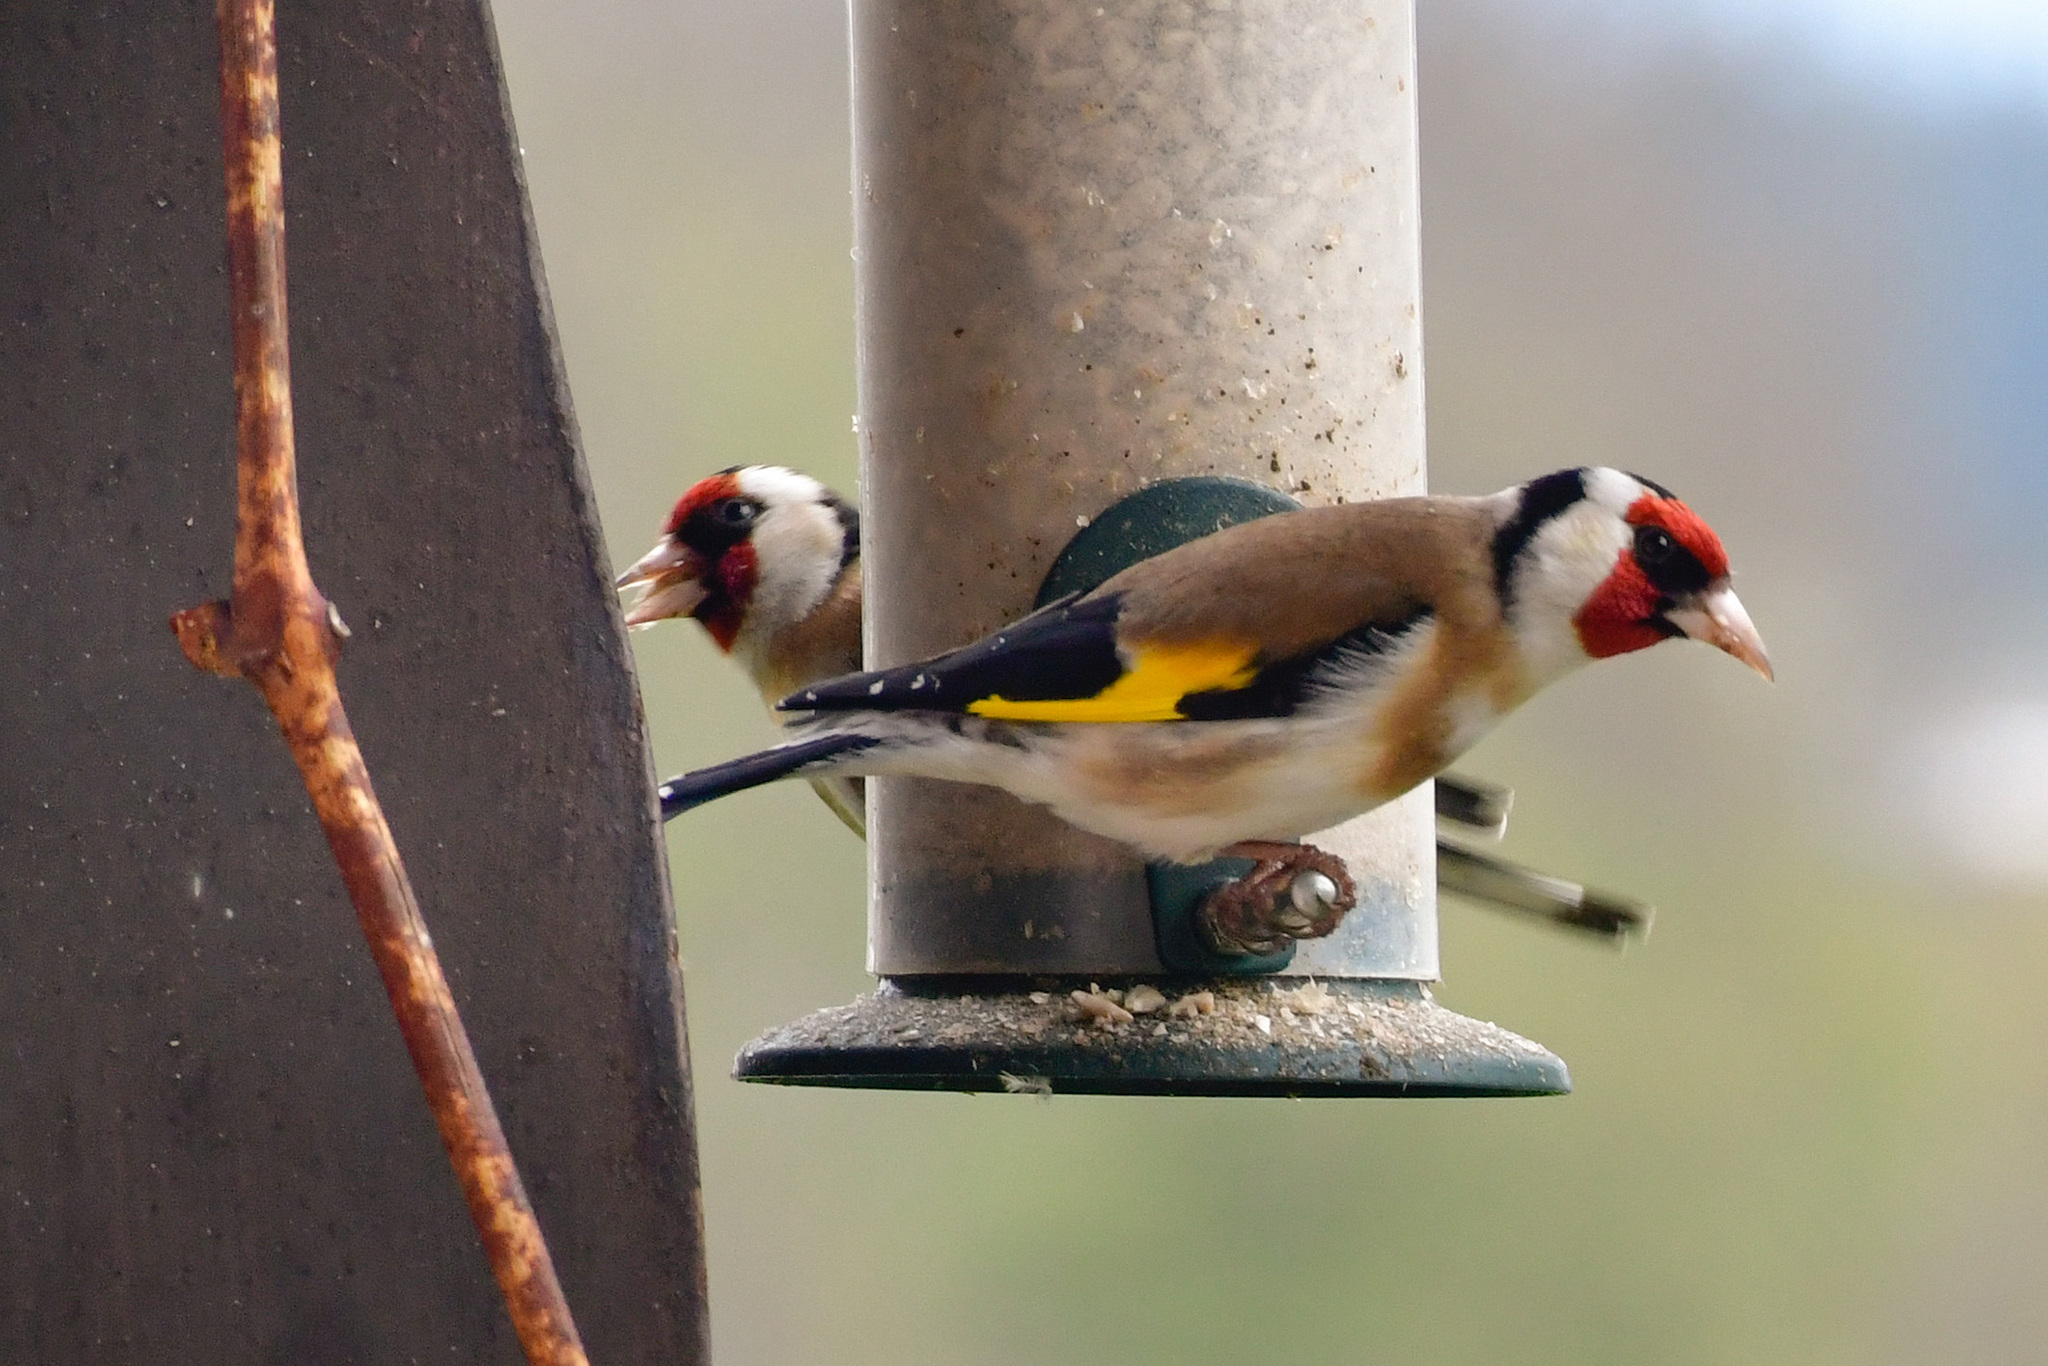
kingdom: Animalia
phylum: Chordata
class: Aves
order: Passeriformes
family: Fringillidae
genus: Carduelis
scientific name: Carduelis carduelis
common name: European goldfinch
